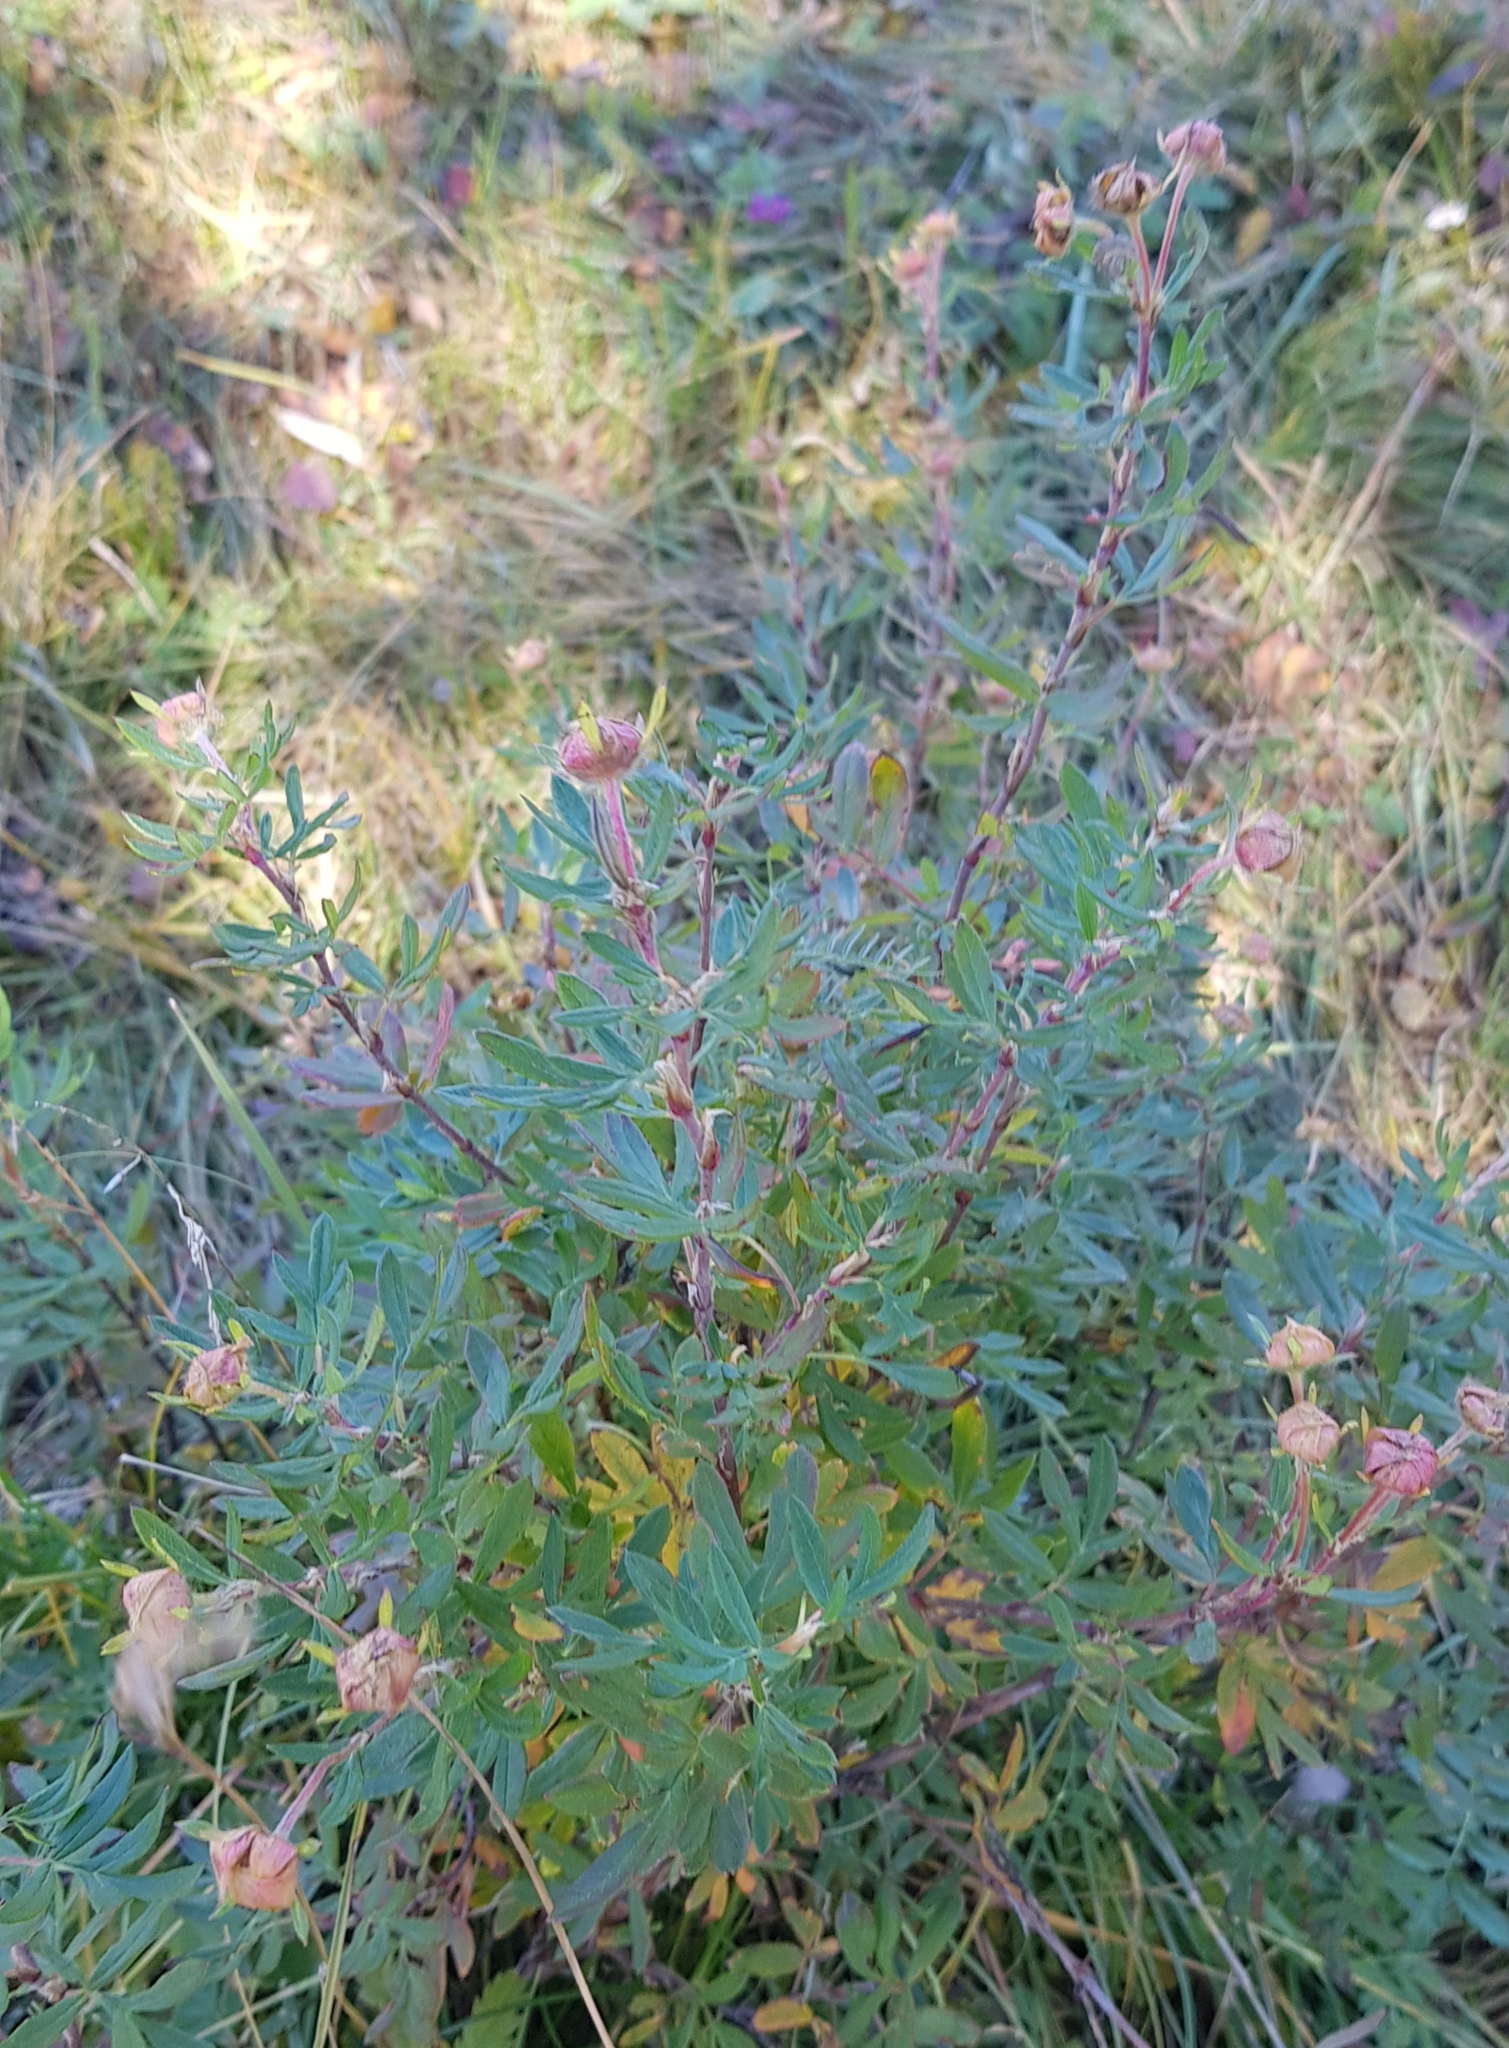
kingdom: Plantae
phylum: Tracheophyta
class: Magnoliopsida
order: Rosales
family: Rosaceae
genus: Dasiphora
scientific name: Dasiphora fruticosa
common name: Shrubby cinquefoil
